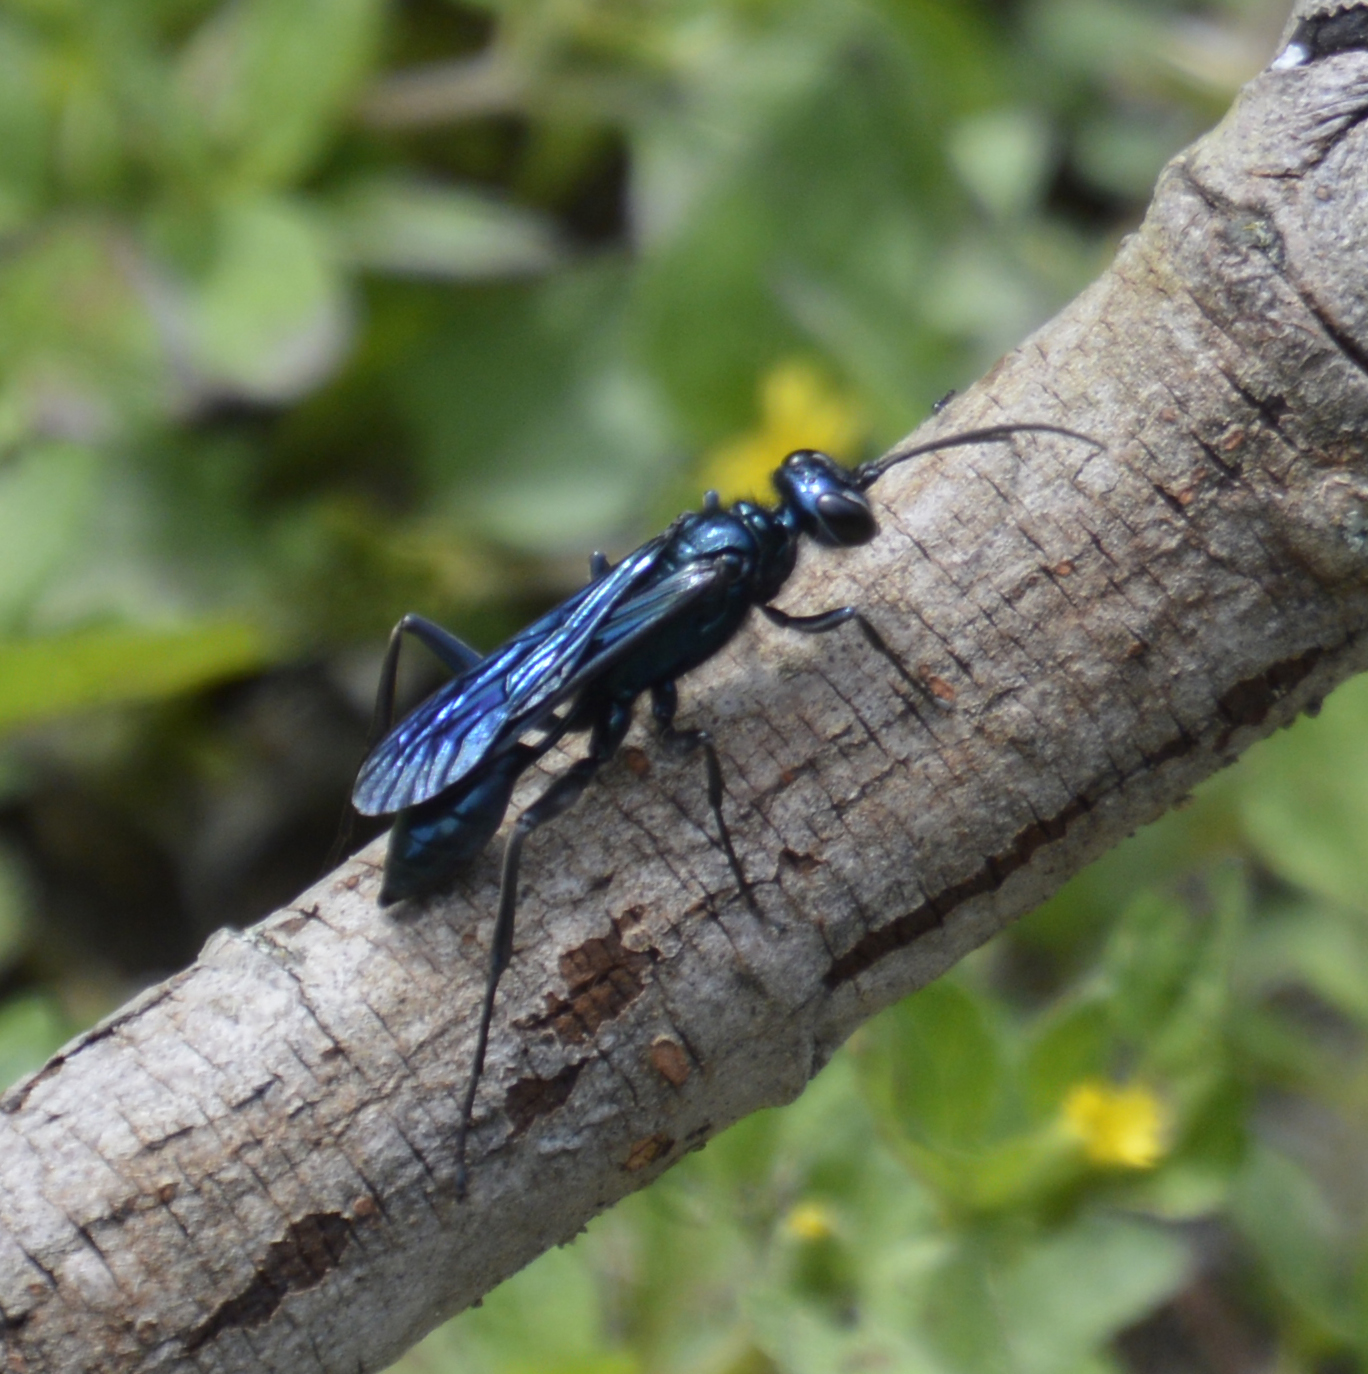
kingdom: Animalia
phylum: Arthropoda
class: Insecta
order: Hymenoptera
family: Sphecidae
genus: Chalybion
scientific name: Chalybion californicum
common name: Mud dauber
